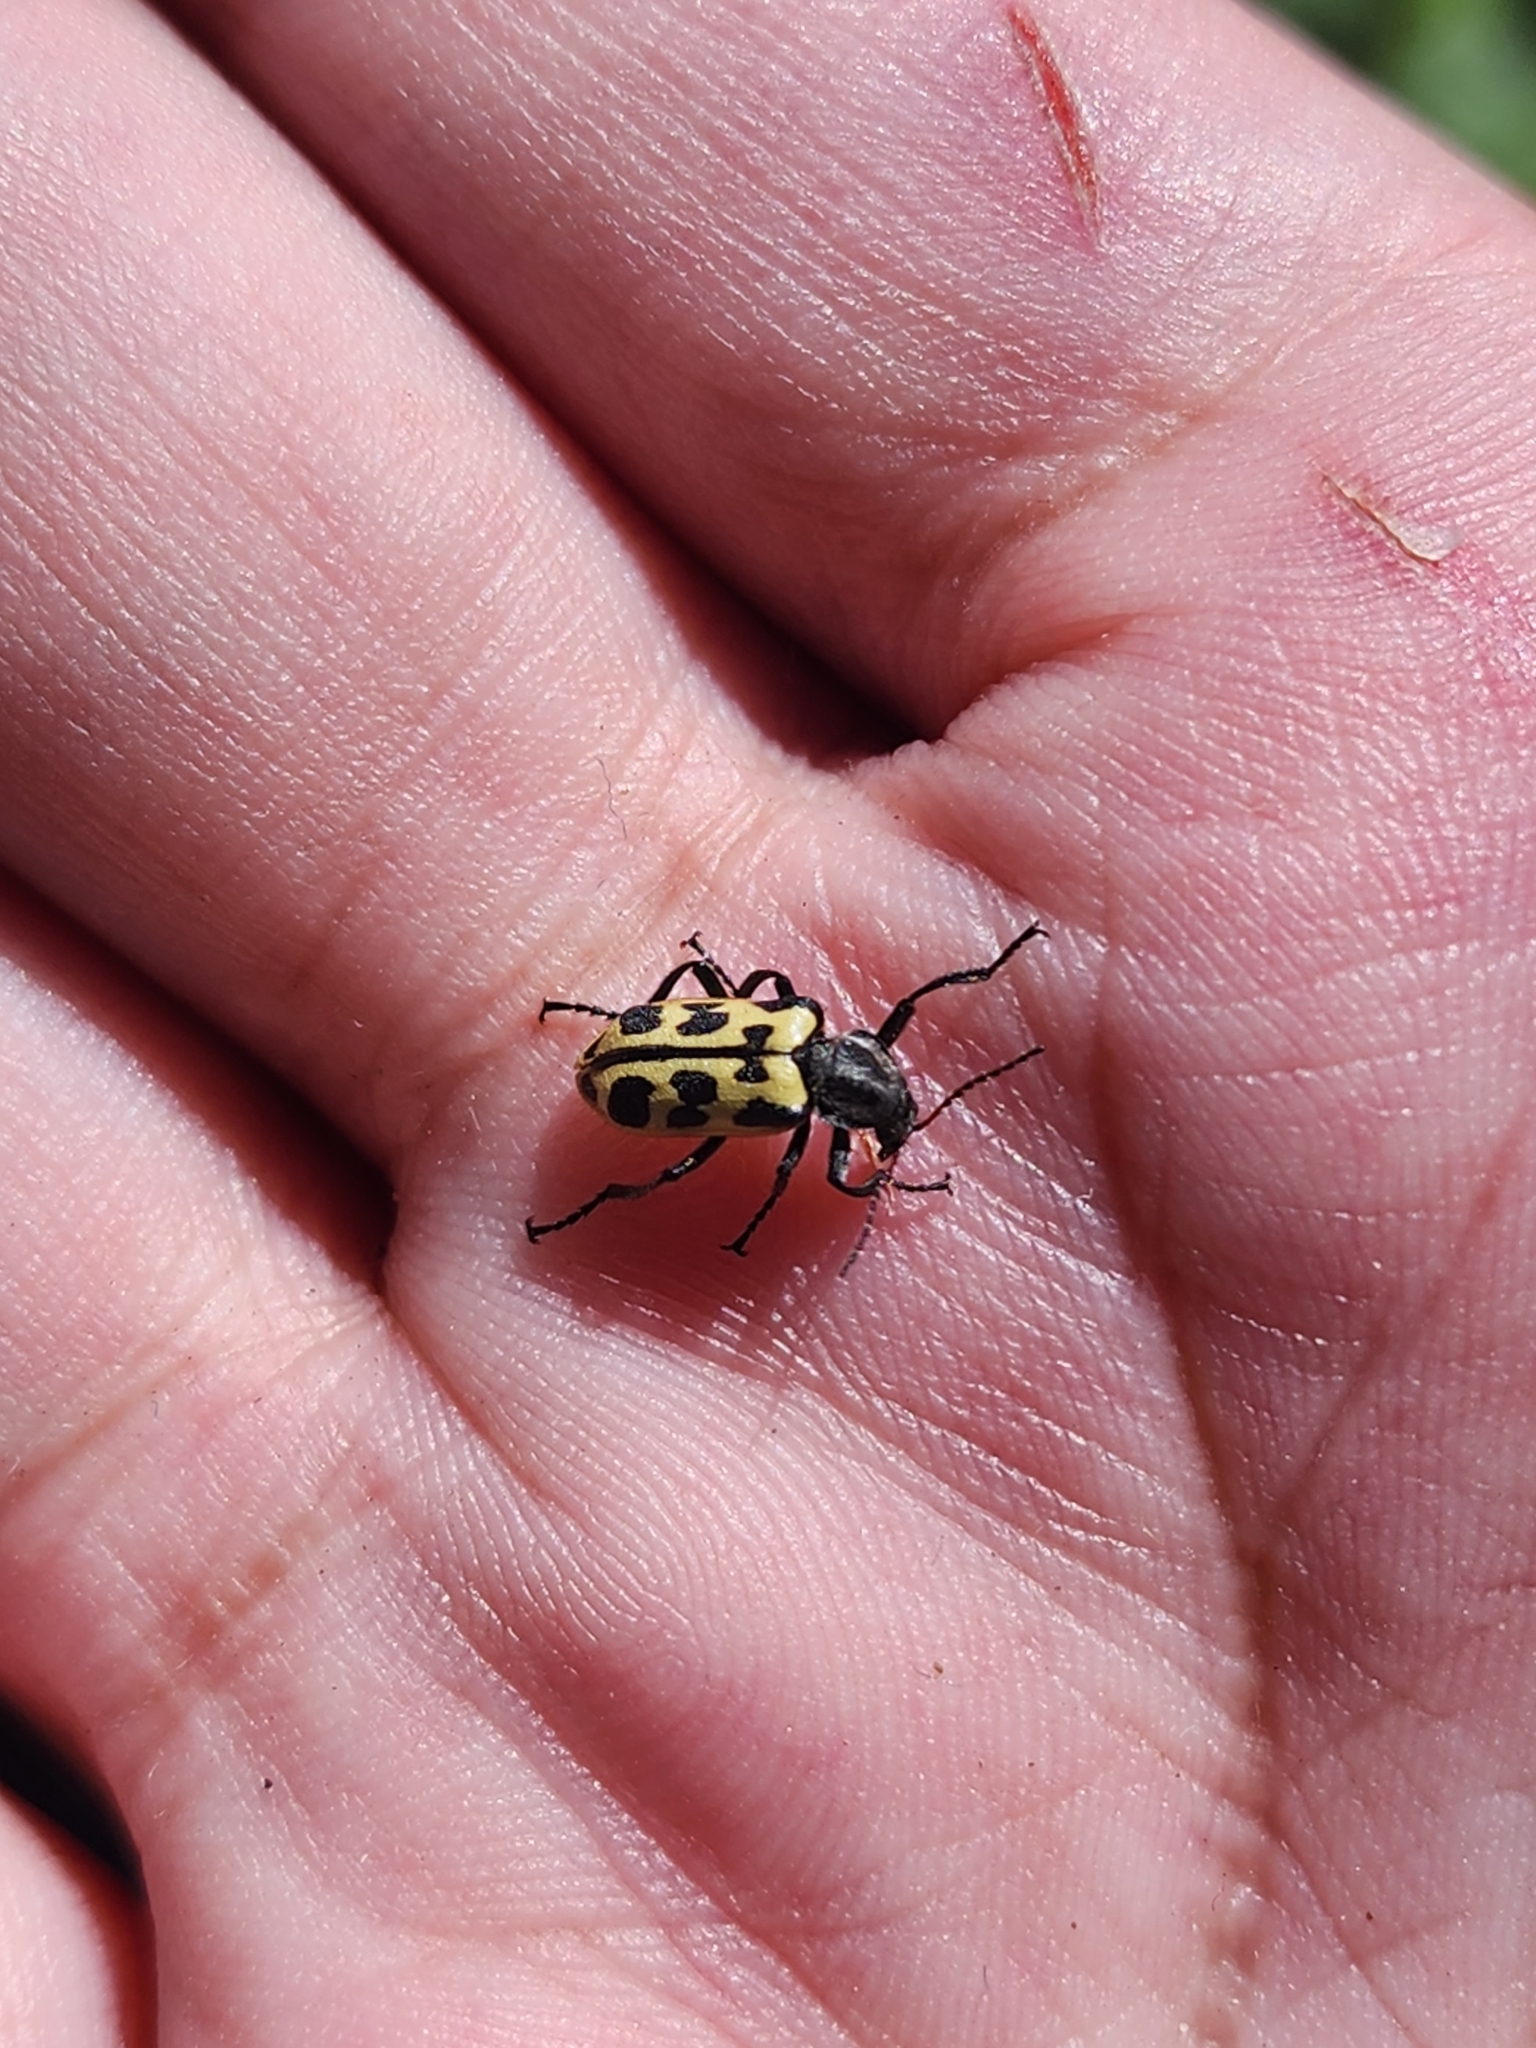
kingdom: Animalia
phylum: Arthropoda
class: Insecta
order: Coleoptera
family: Melyridae
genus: Astylus
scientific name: Astylus atromaculatus
